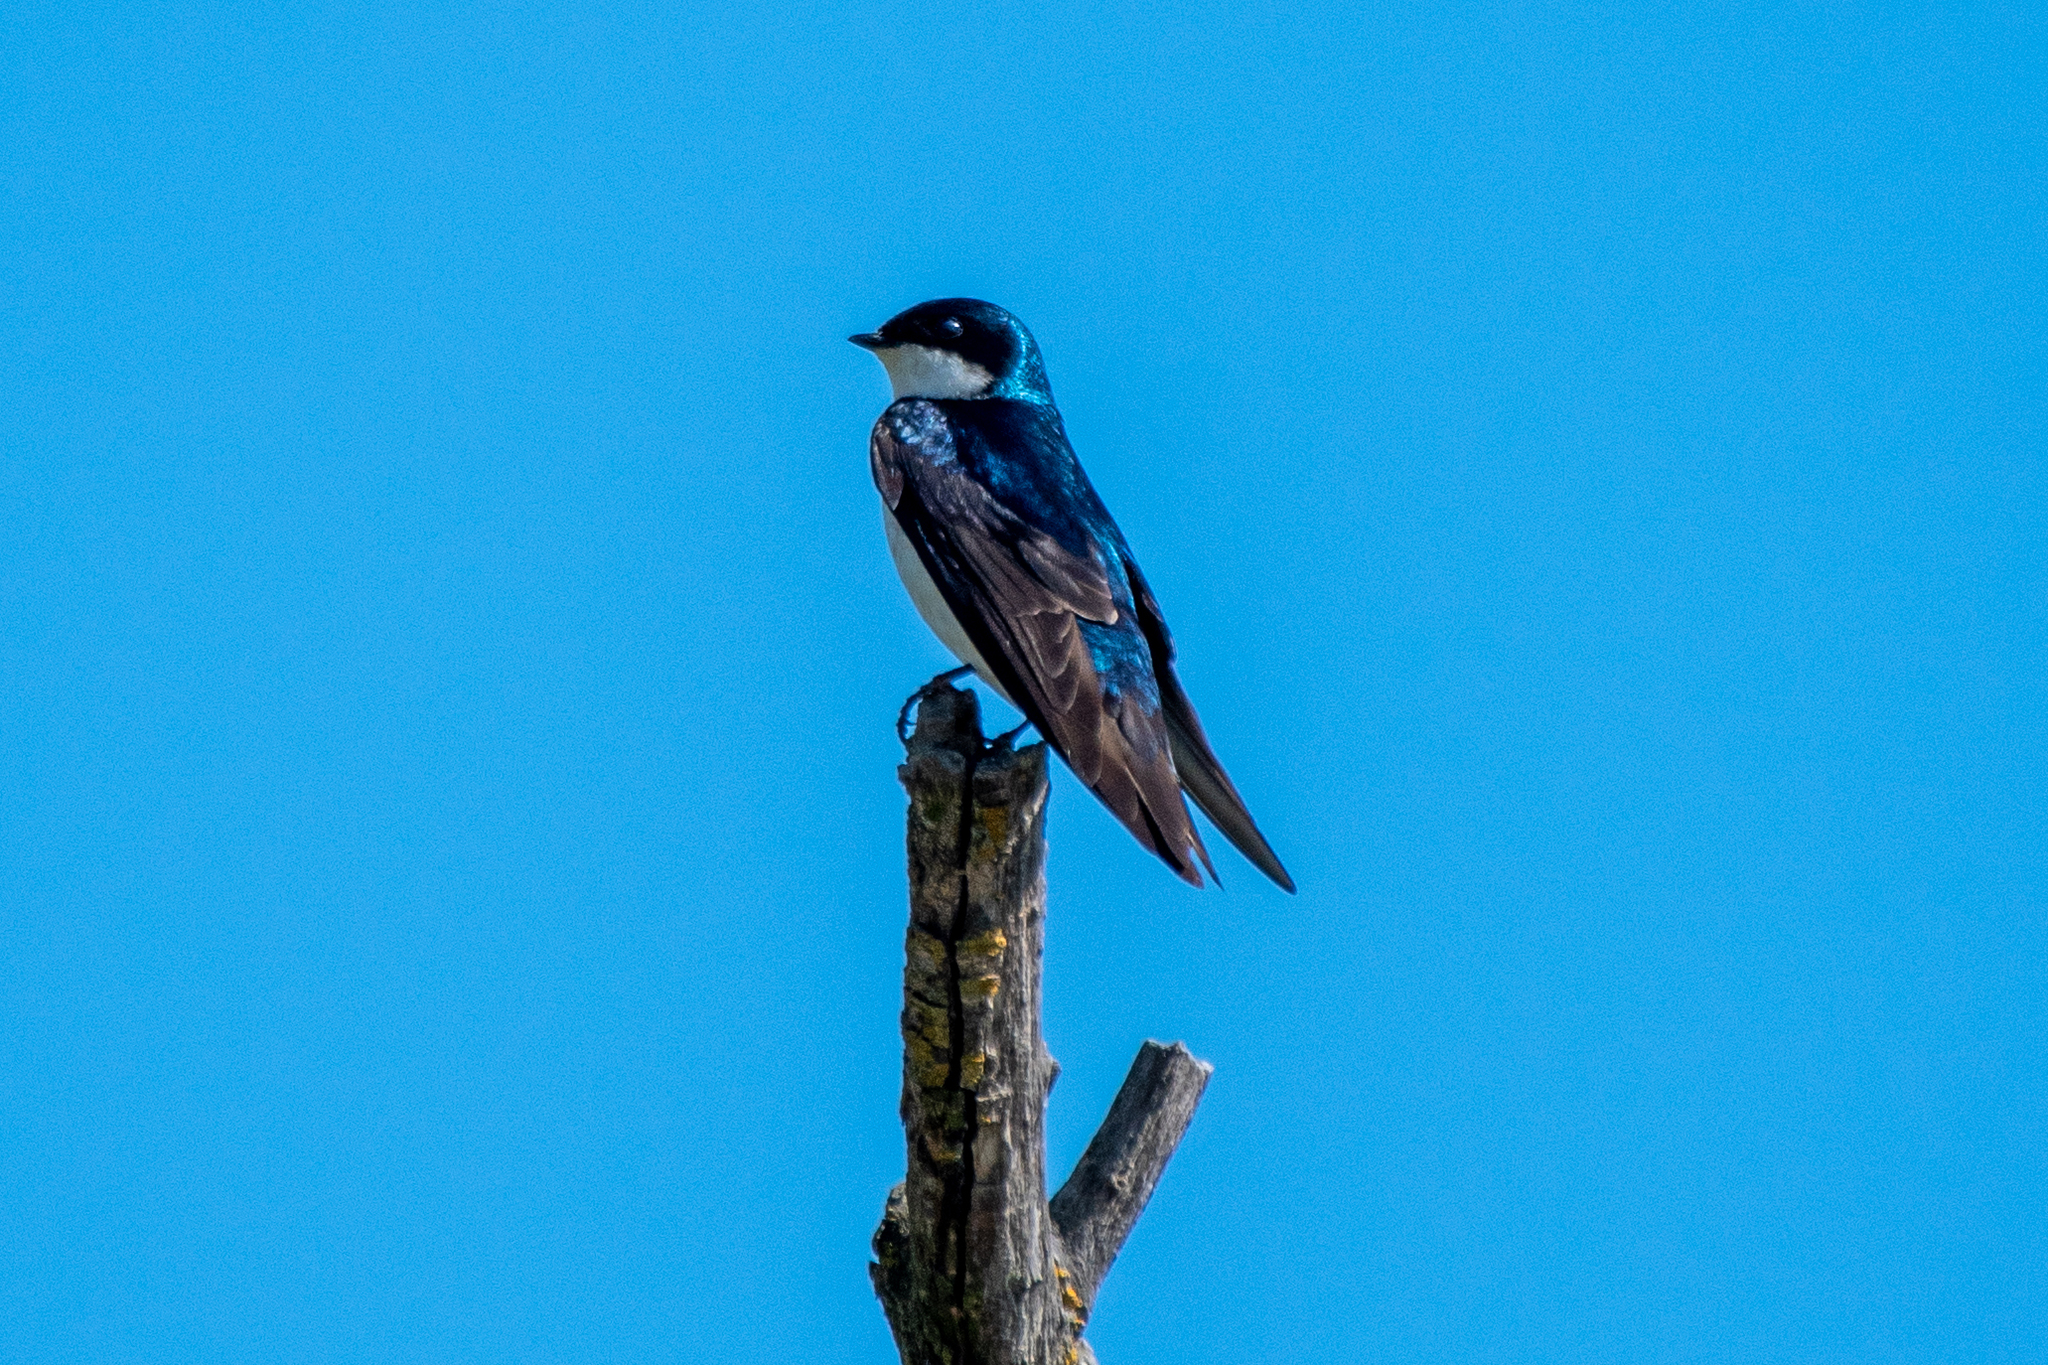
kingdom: Animalia
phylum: Chordata
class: Aves
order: Passeriformes
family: Hirundinidae
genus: Tachycineta
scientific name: Tachycineta bicolor
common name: Tree swallow
